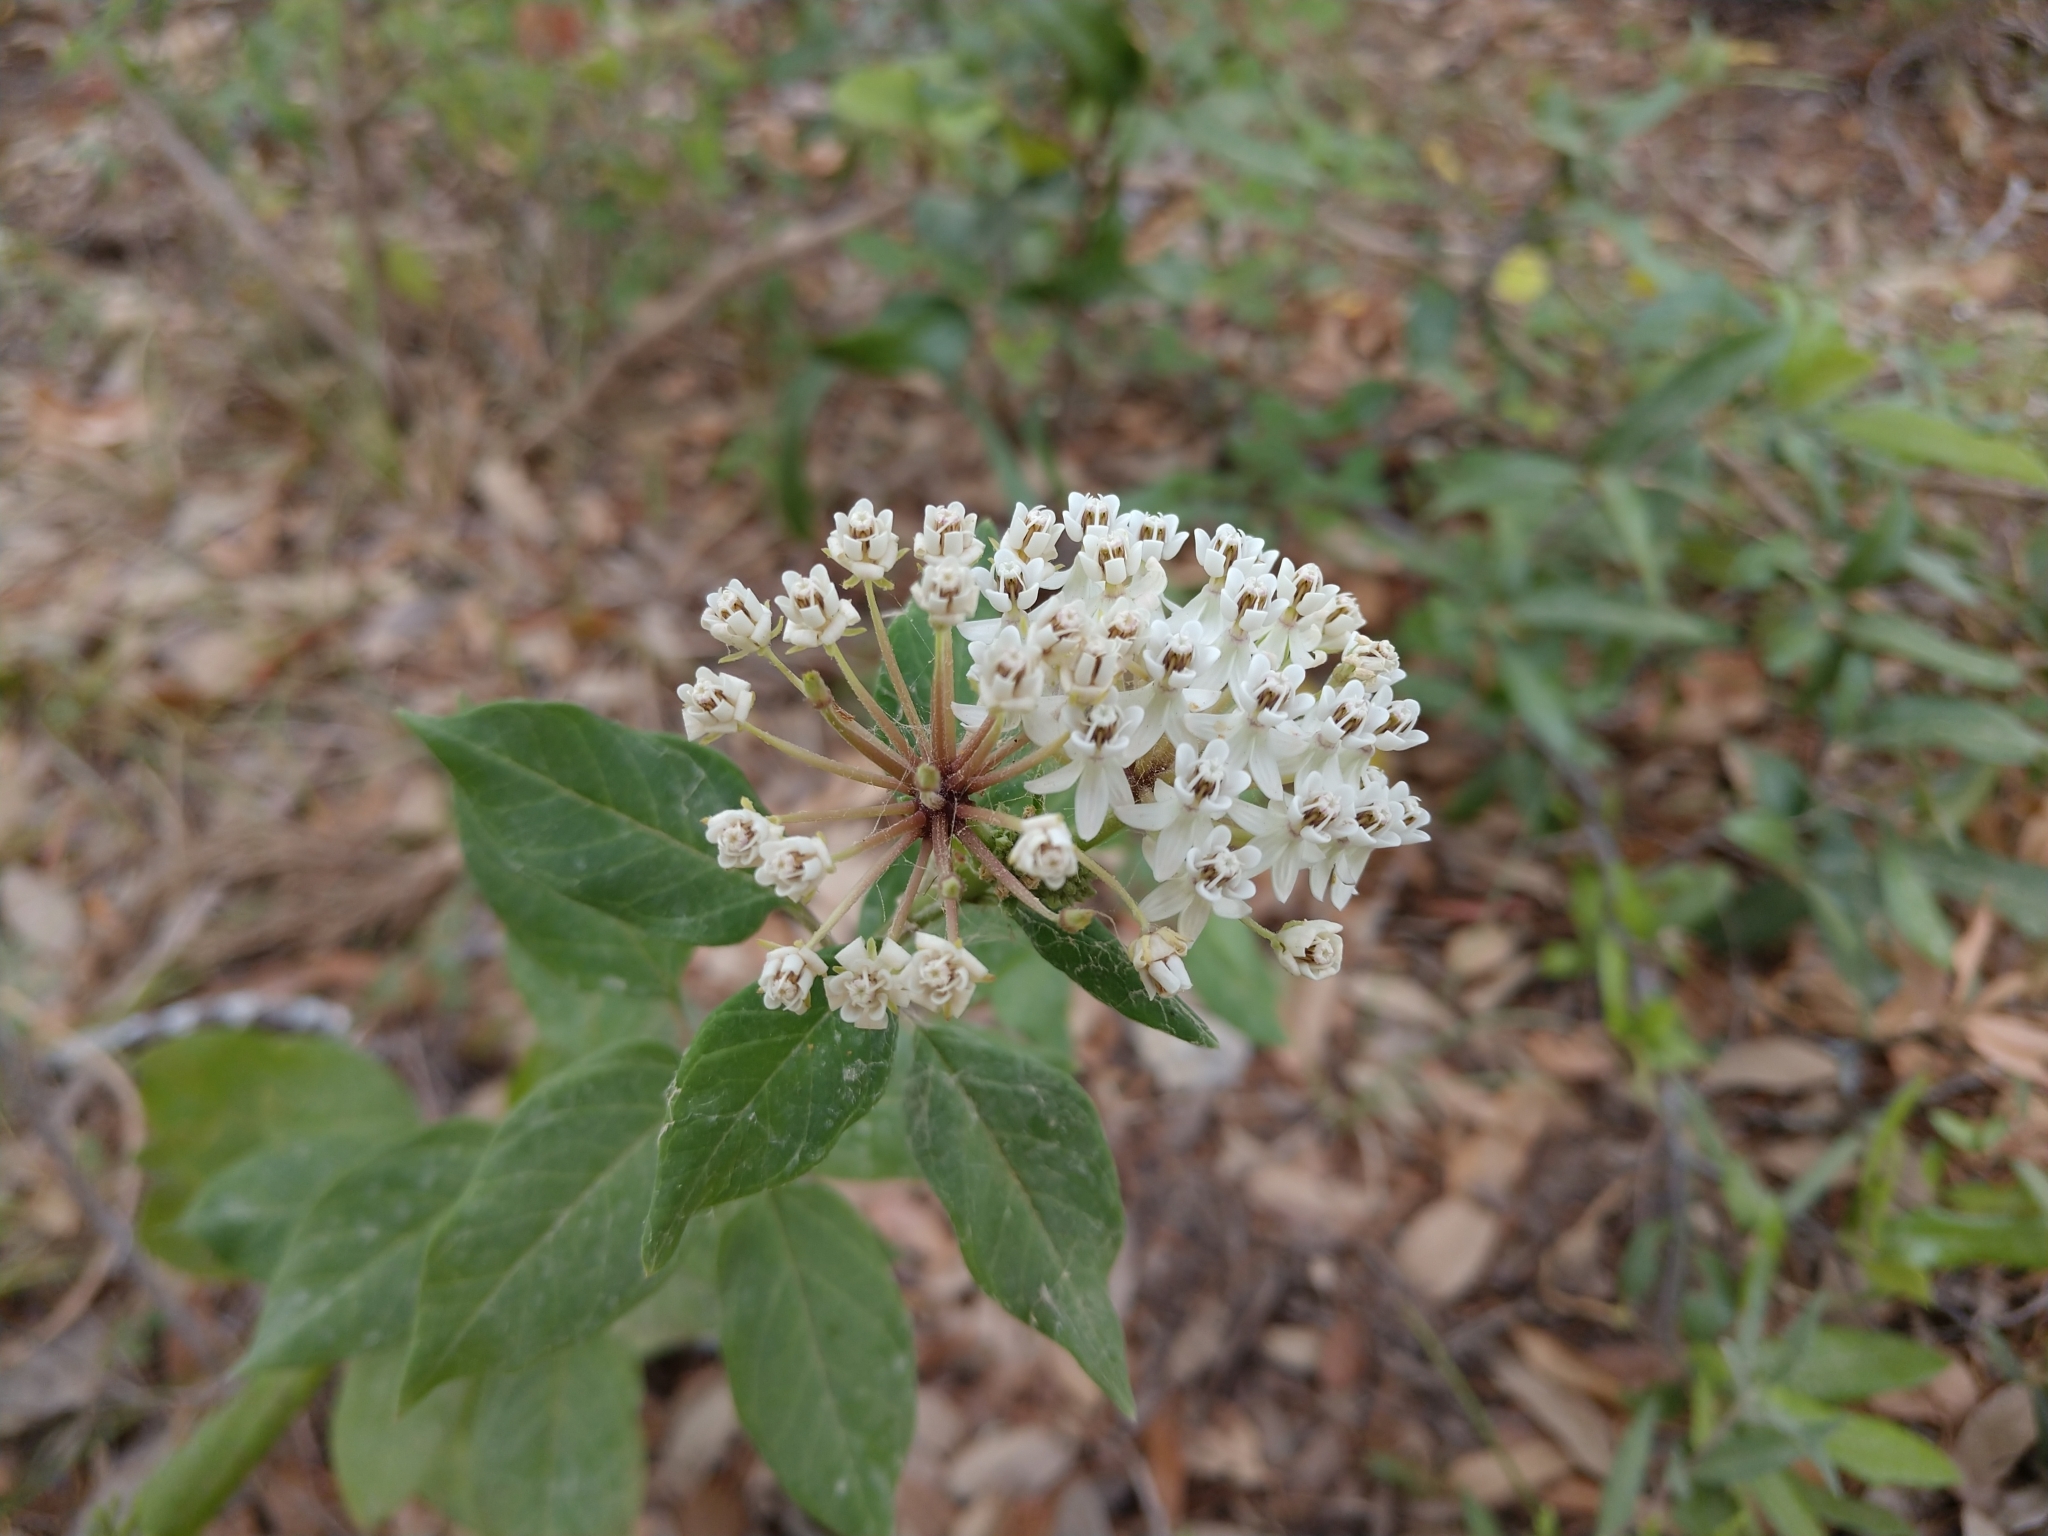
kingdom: Plantae
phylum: Tracheophyta
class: Magnoliopsida
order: Gentianales
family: Apocynaceae
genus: Asclepias
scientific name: Asclepias texana
